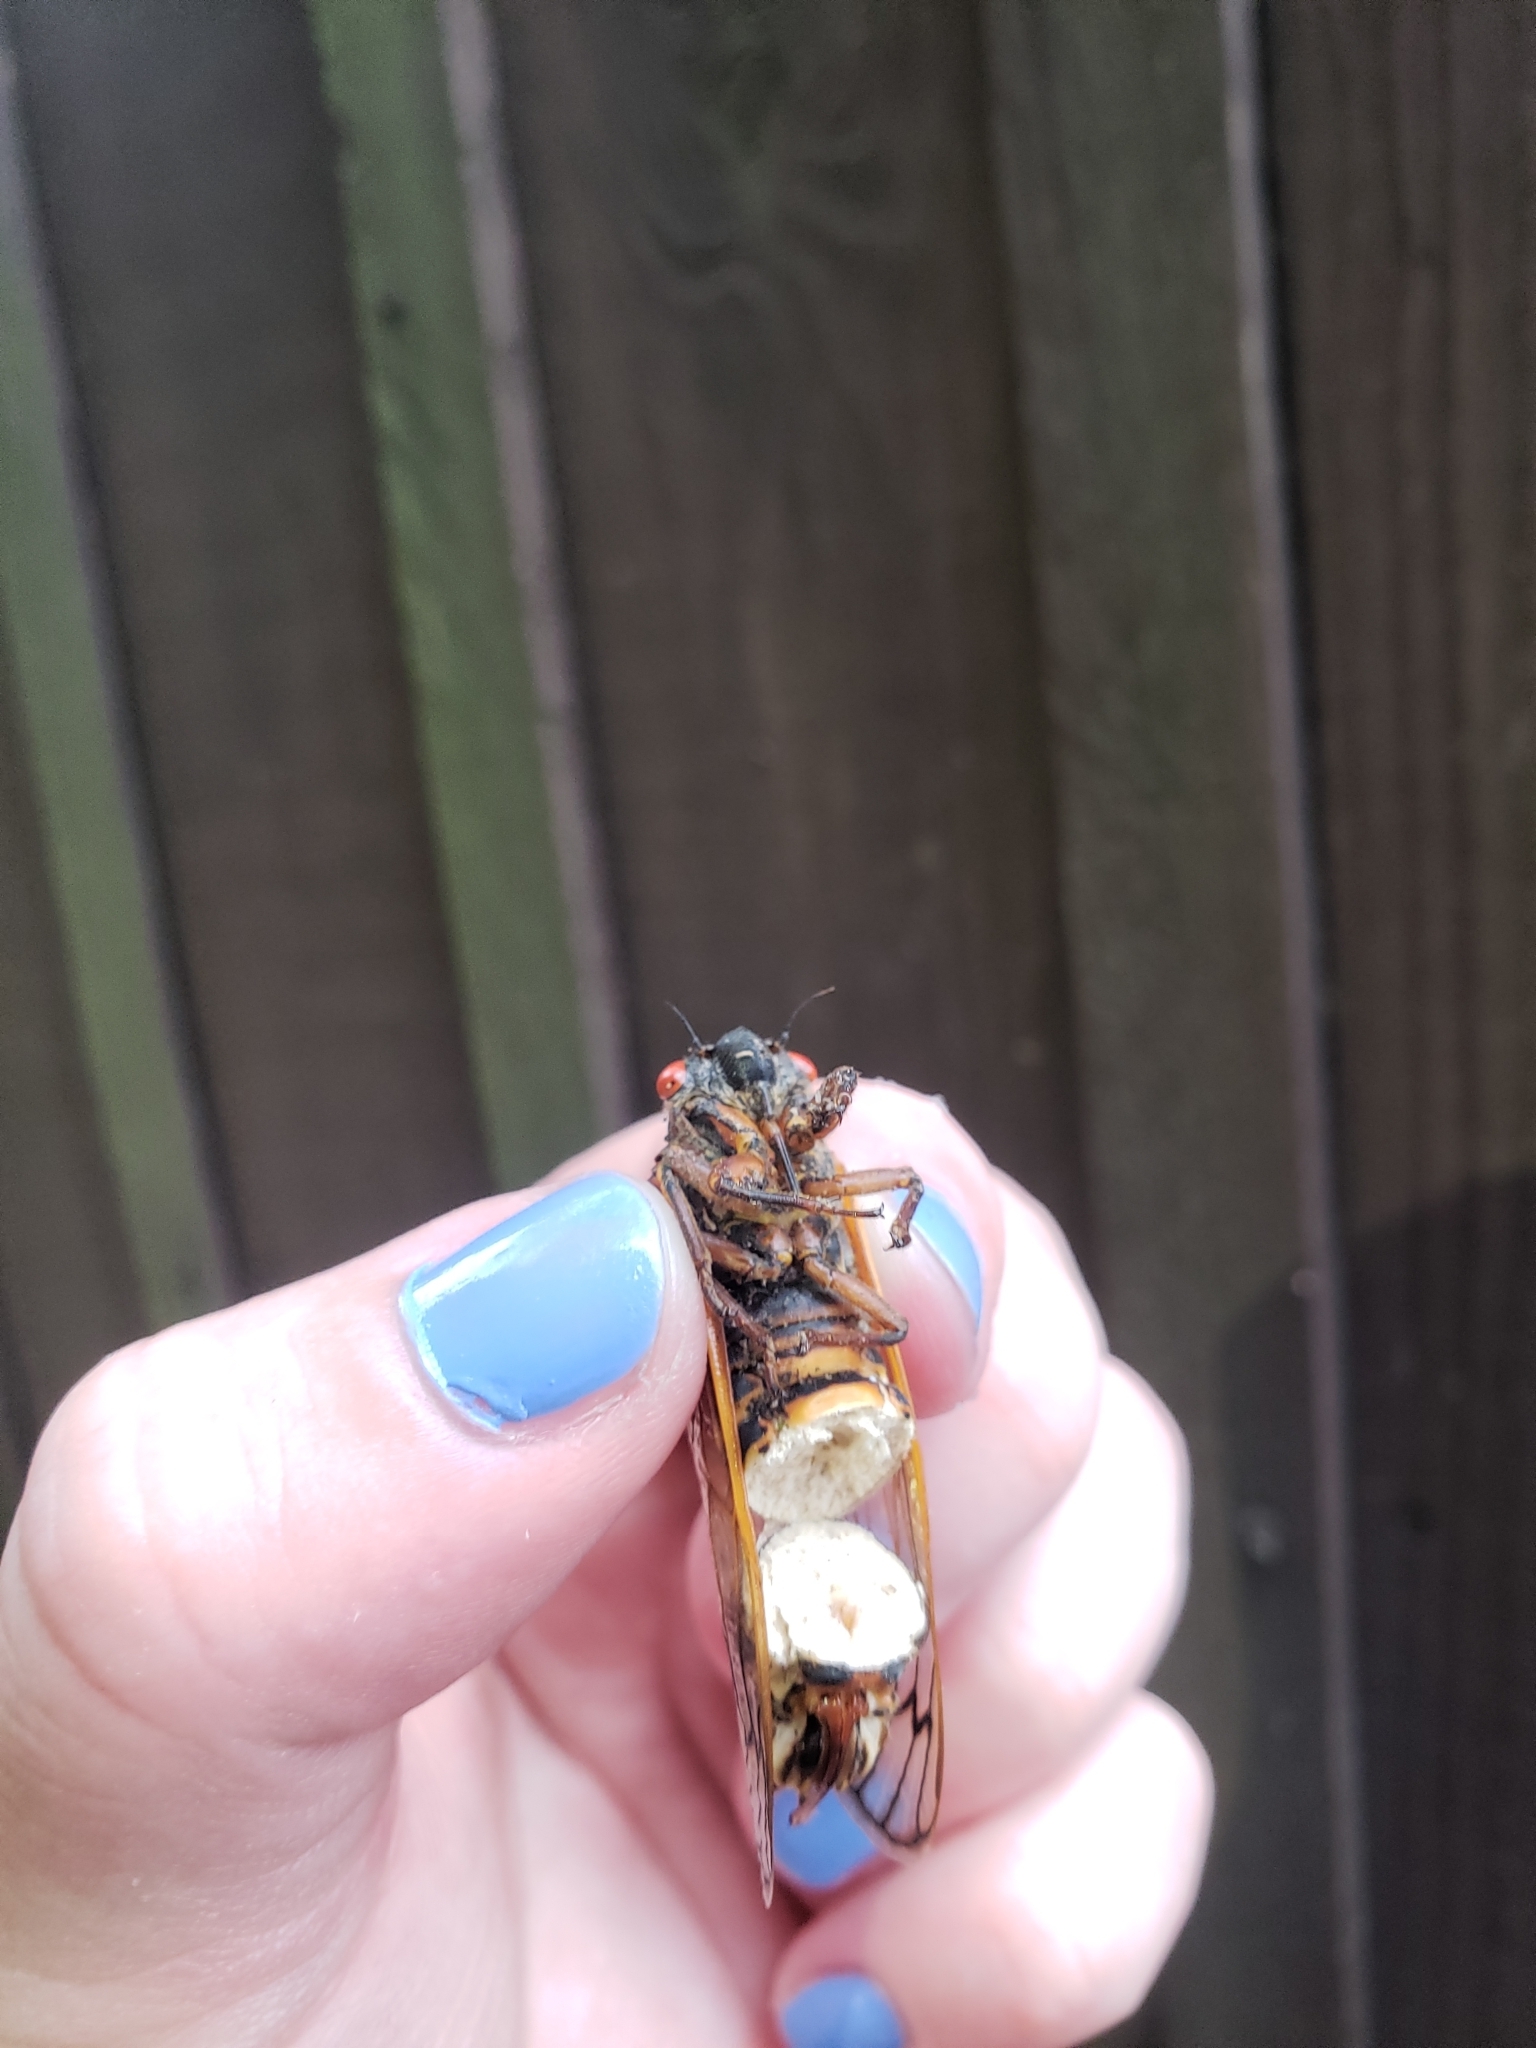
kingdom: Animalia
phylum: Arthropoda
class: Insecta
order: Hemiptera
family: Cicadidae
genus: Magicicada
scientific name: Magicicada septendecim
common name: Periodical cicada
